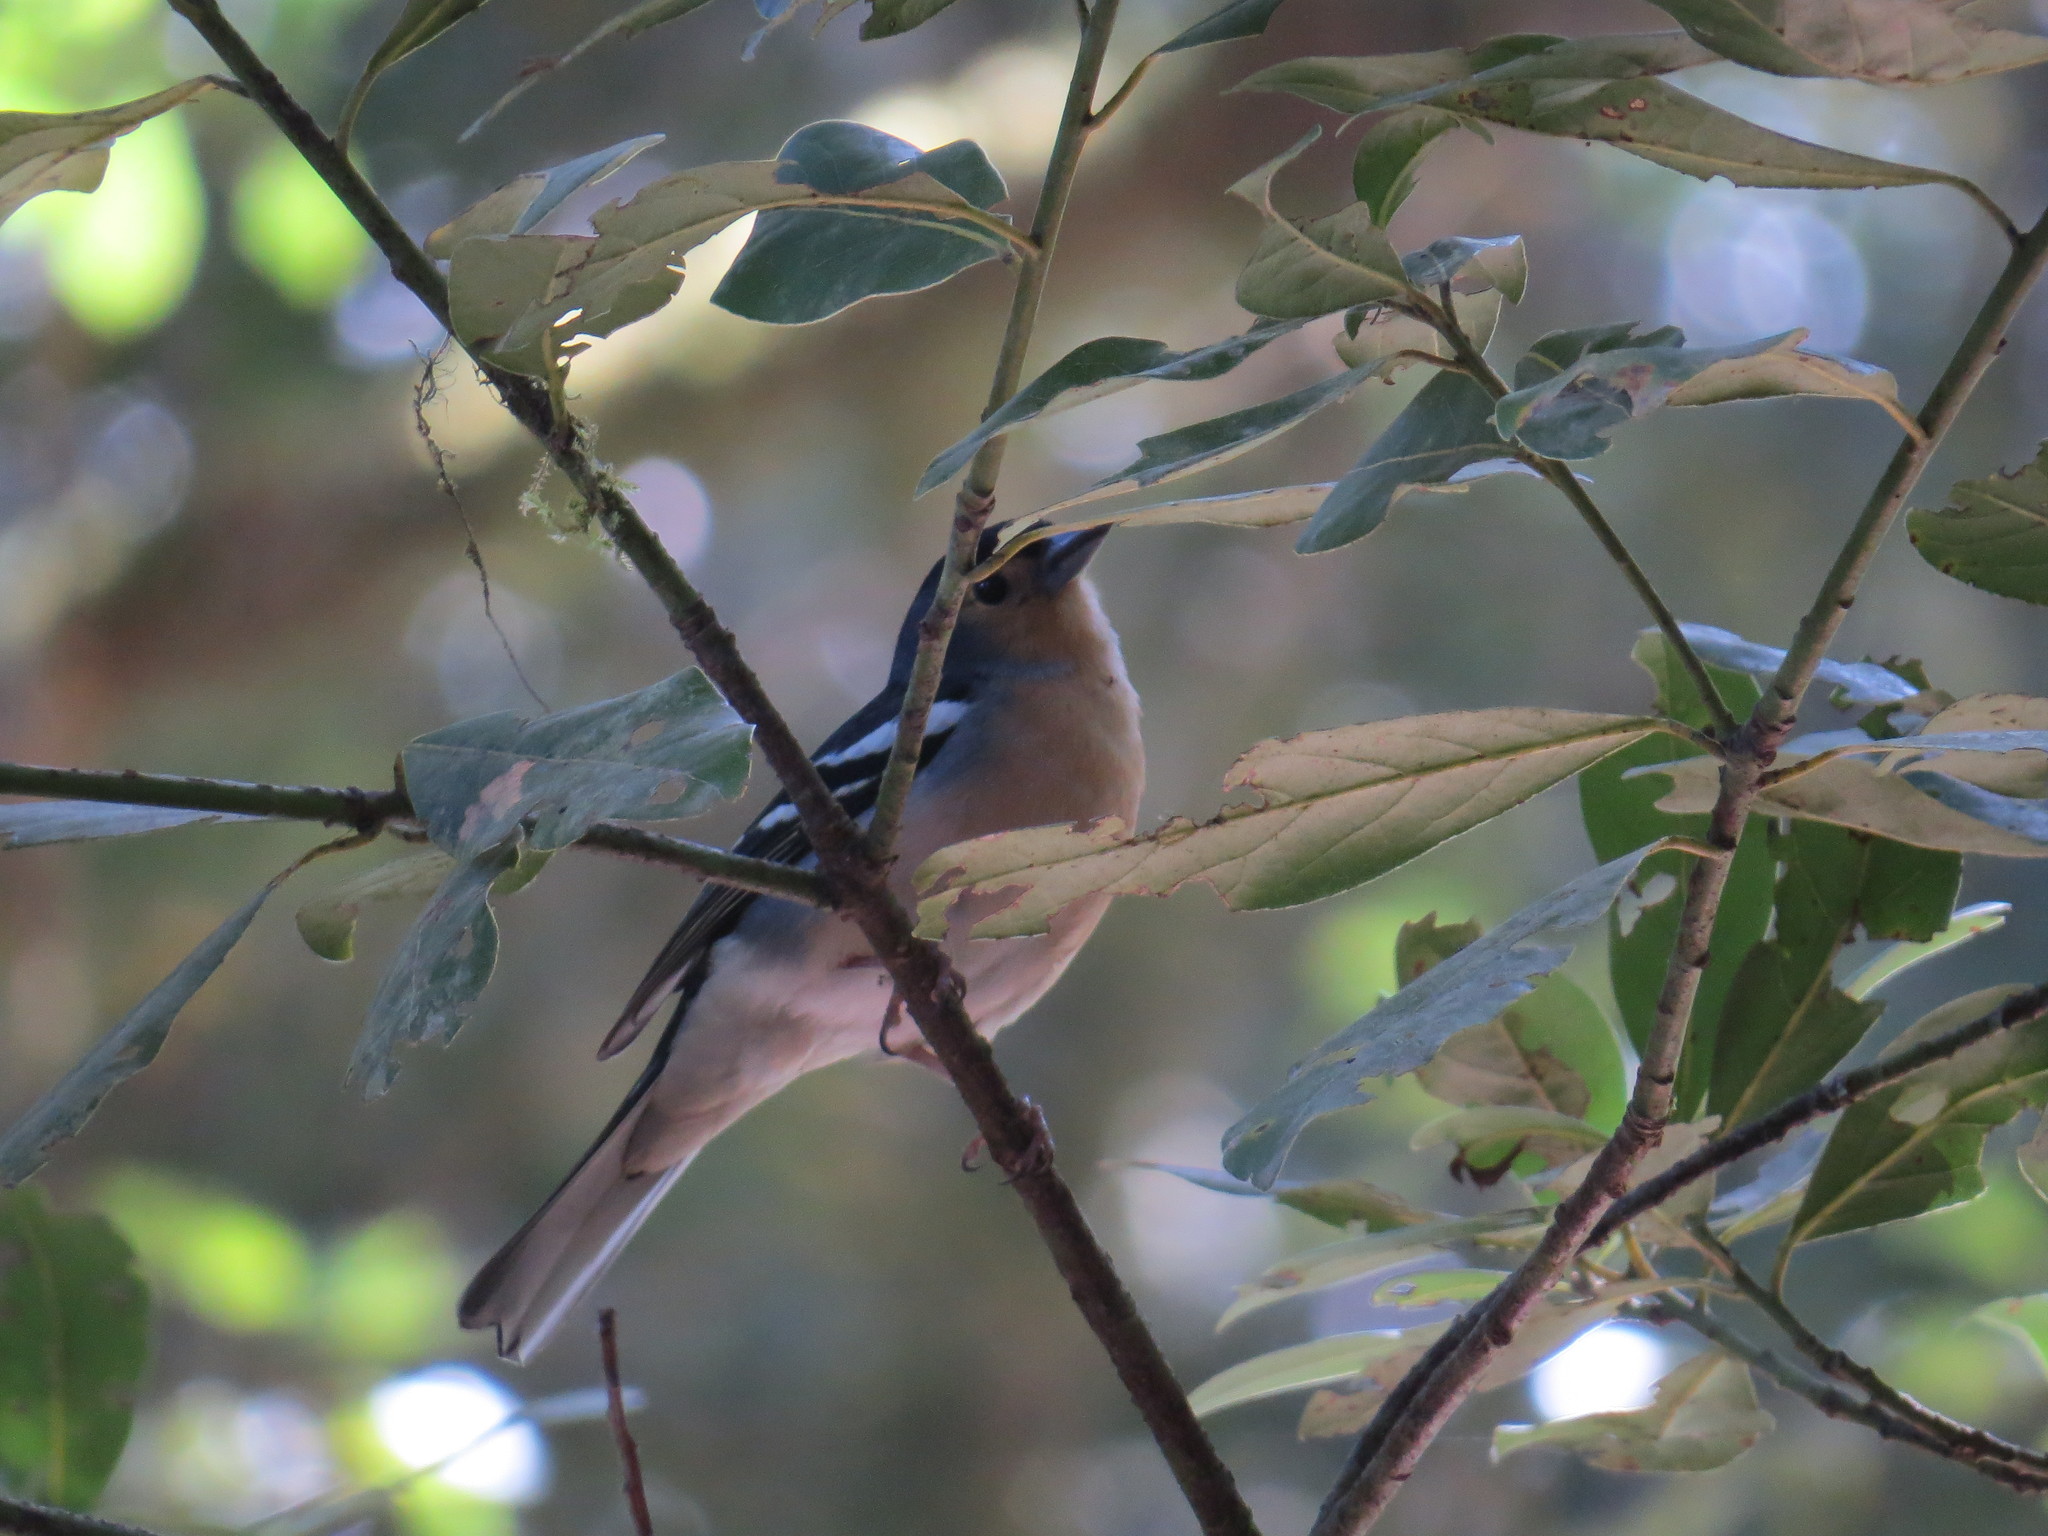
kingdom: Animalia
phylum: Chordata
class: Aves
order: Passeriformes
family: Fringillidae
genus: Fringilla
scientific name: Fringilla canariensis
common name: Canary islands chaffinch
